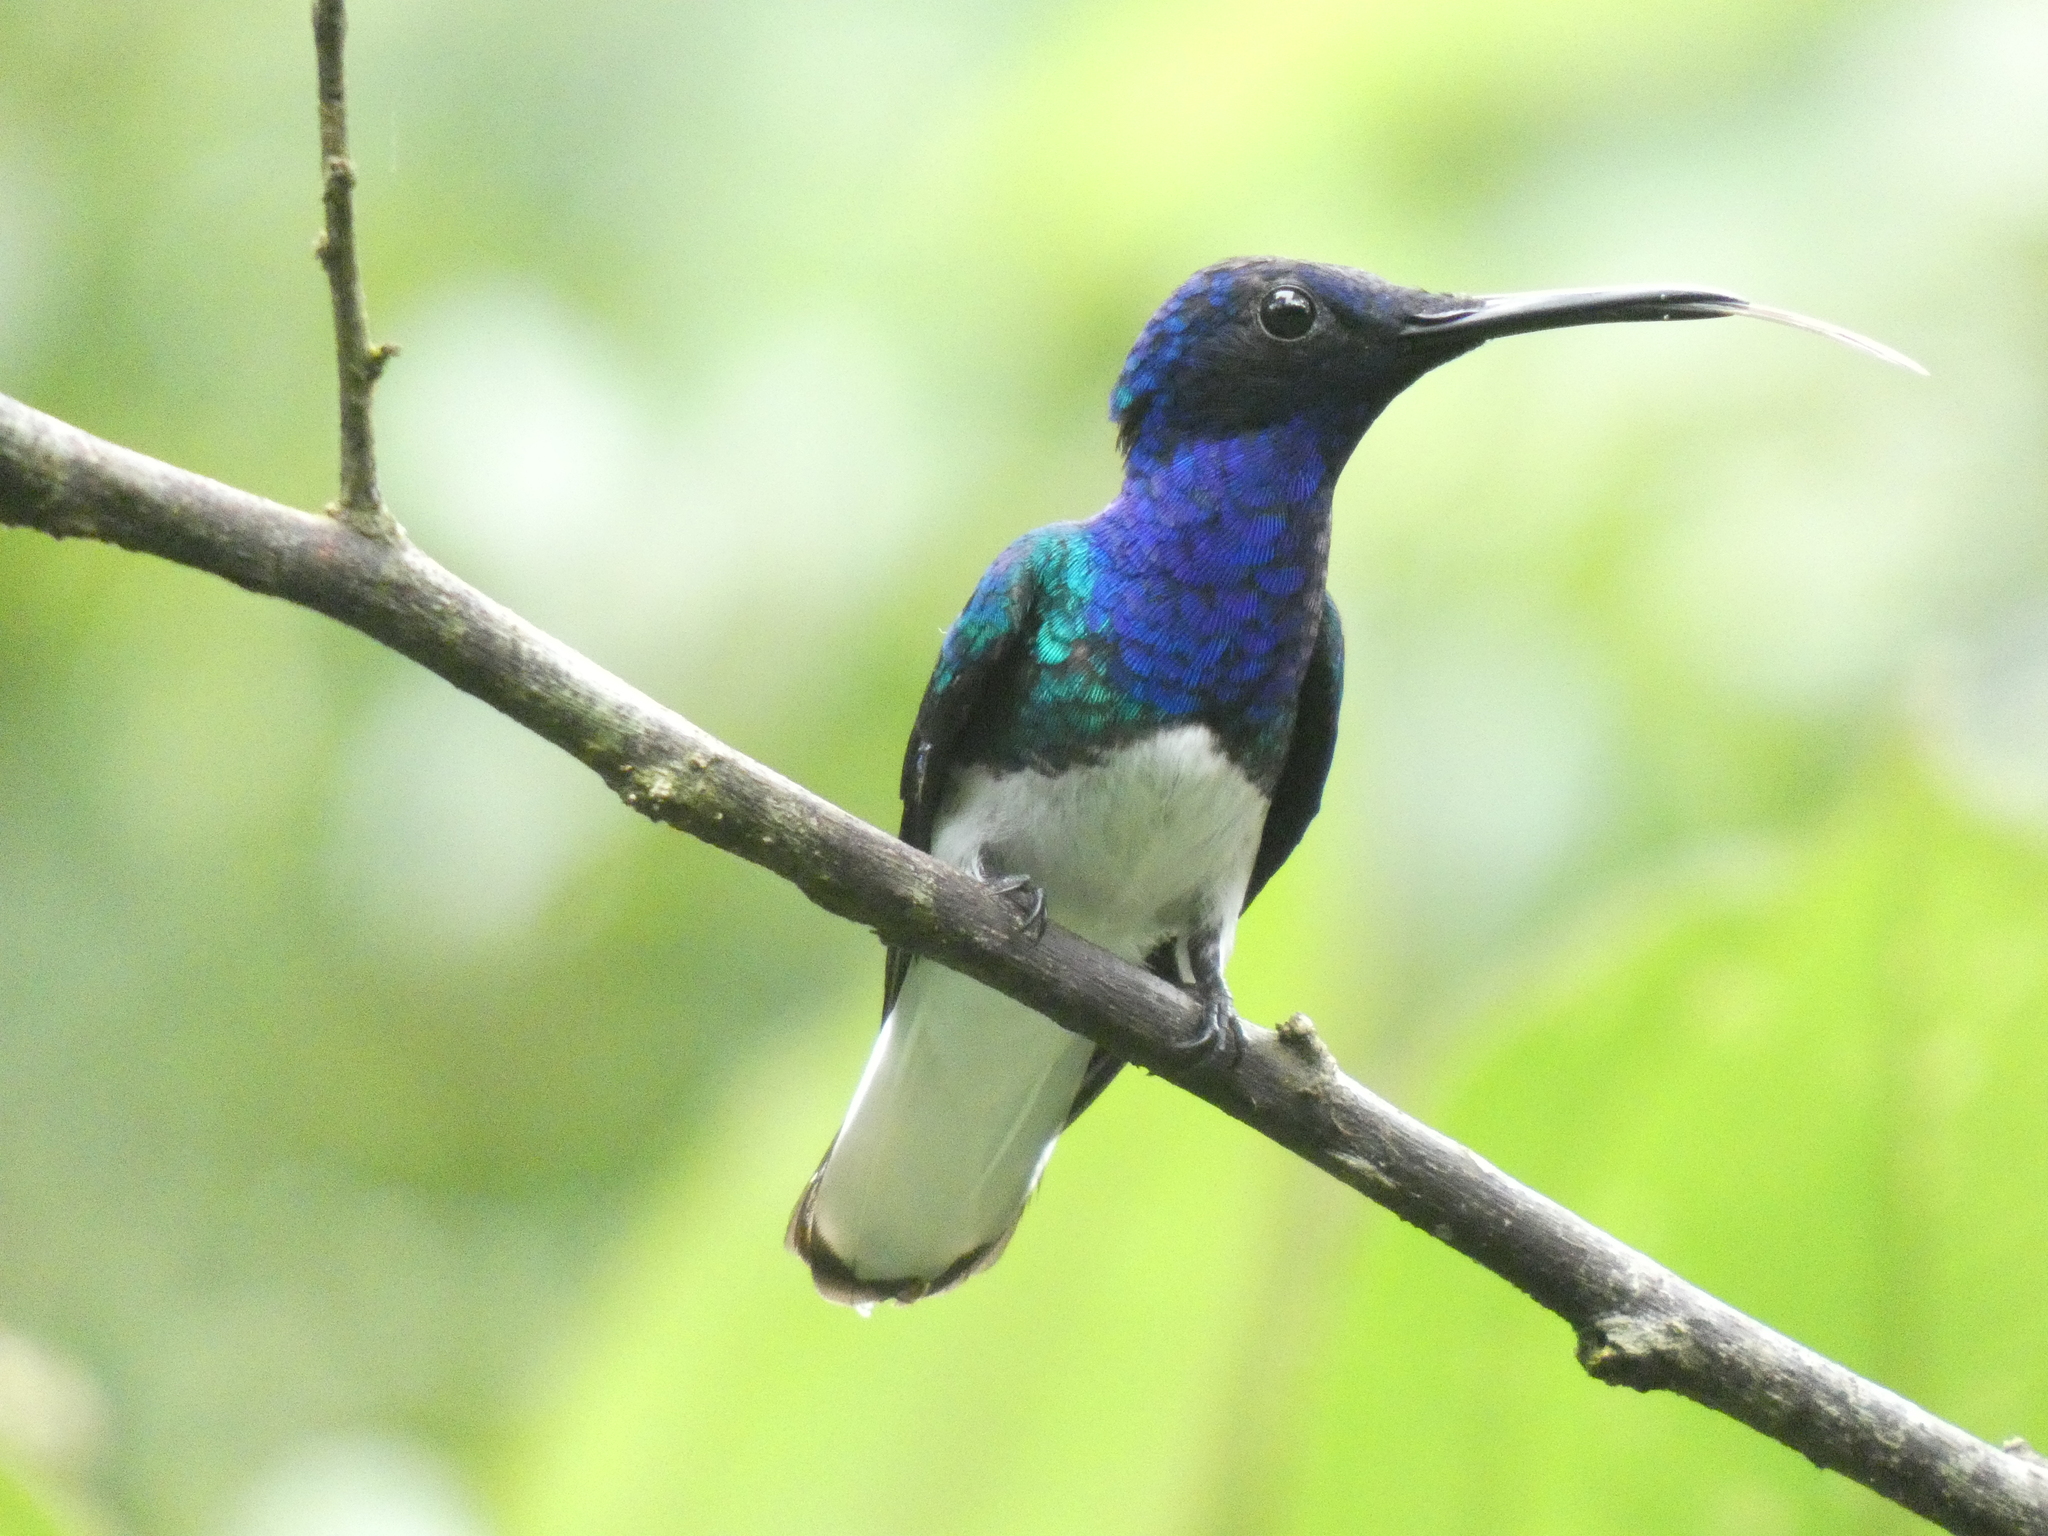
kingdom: Animalia
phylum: Chordata
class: Aves
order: Apodiformes
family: Trochilidae
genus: Florisuga
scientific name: Florisuga mellivora
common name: White-necked jacobin
